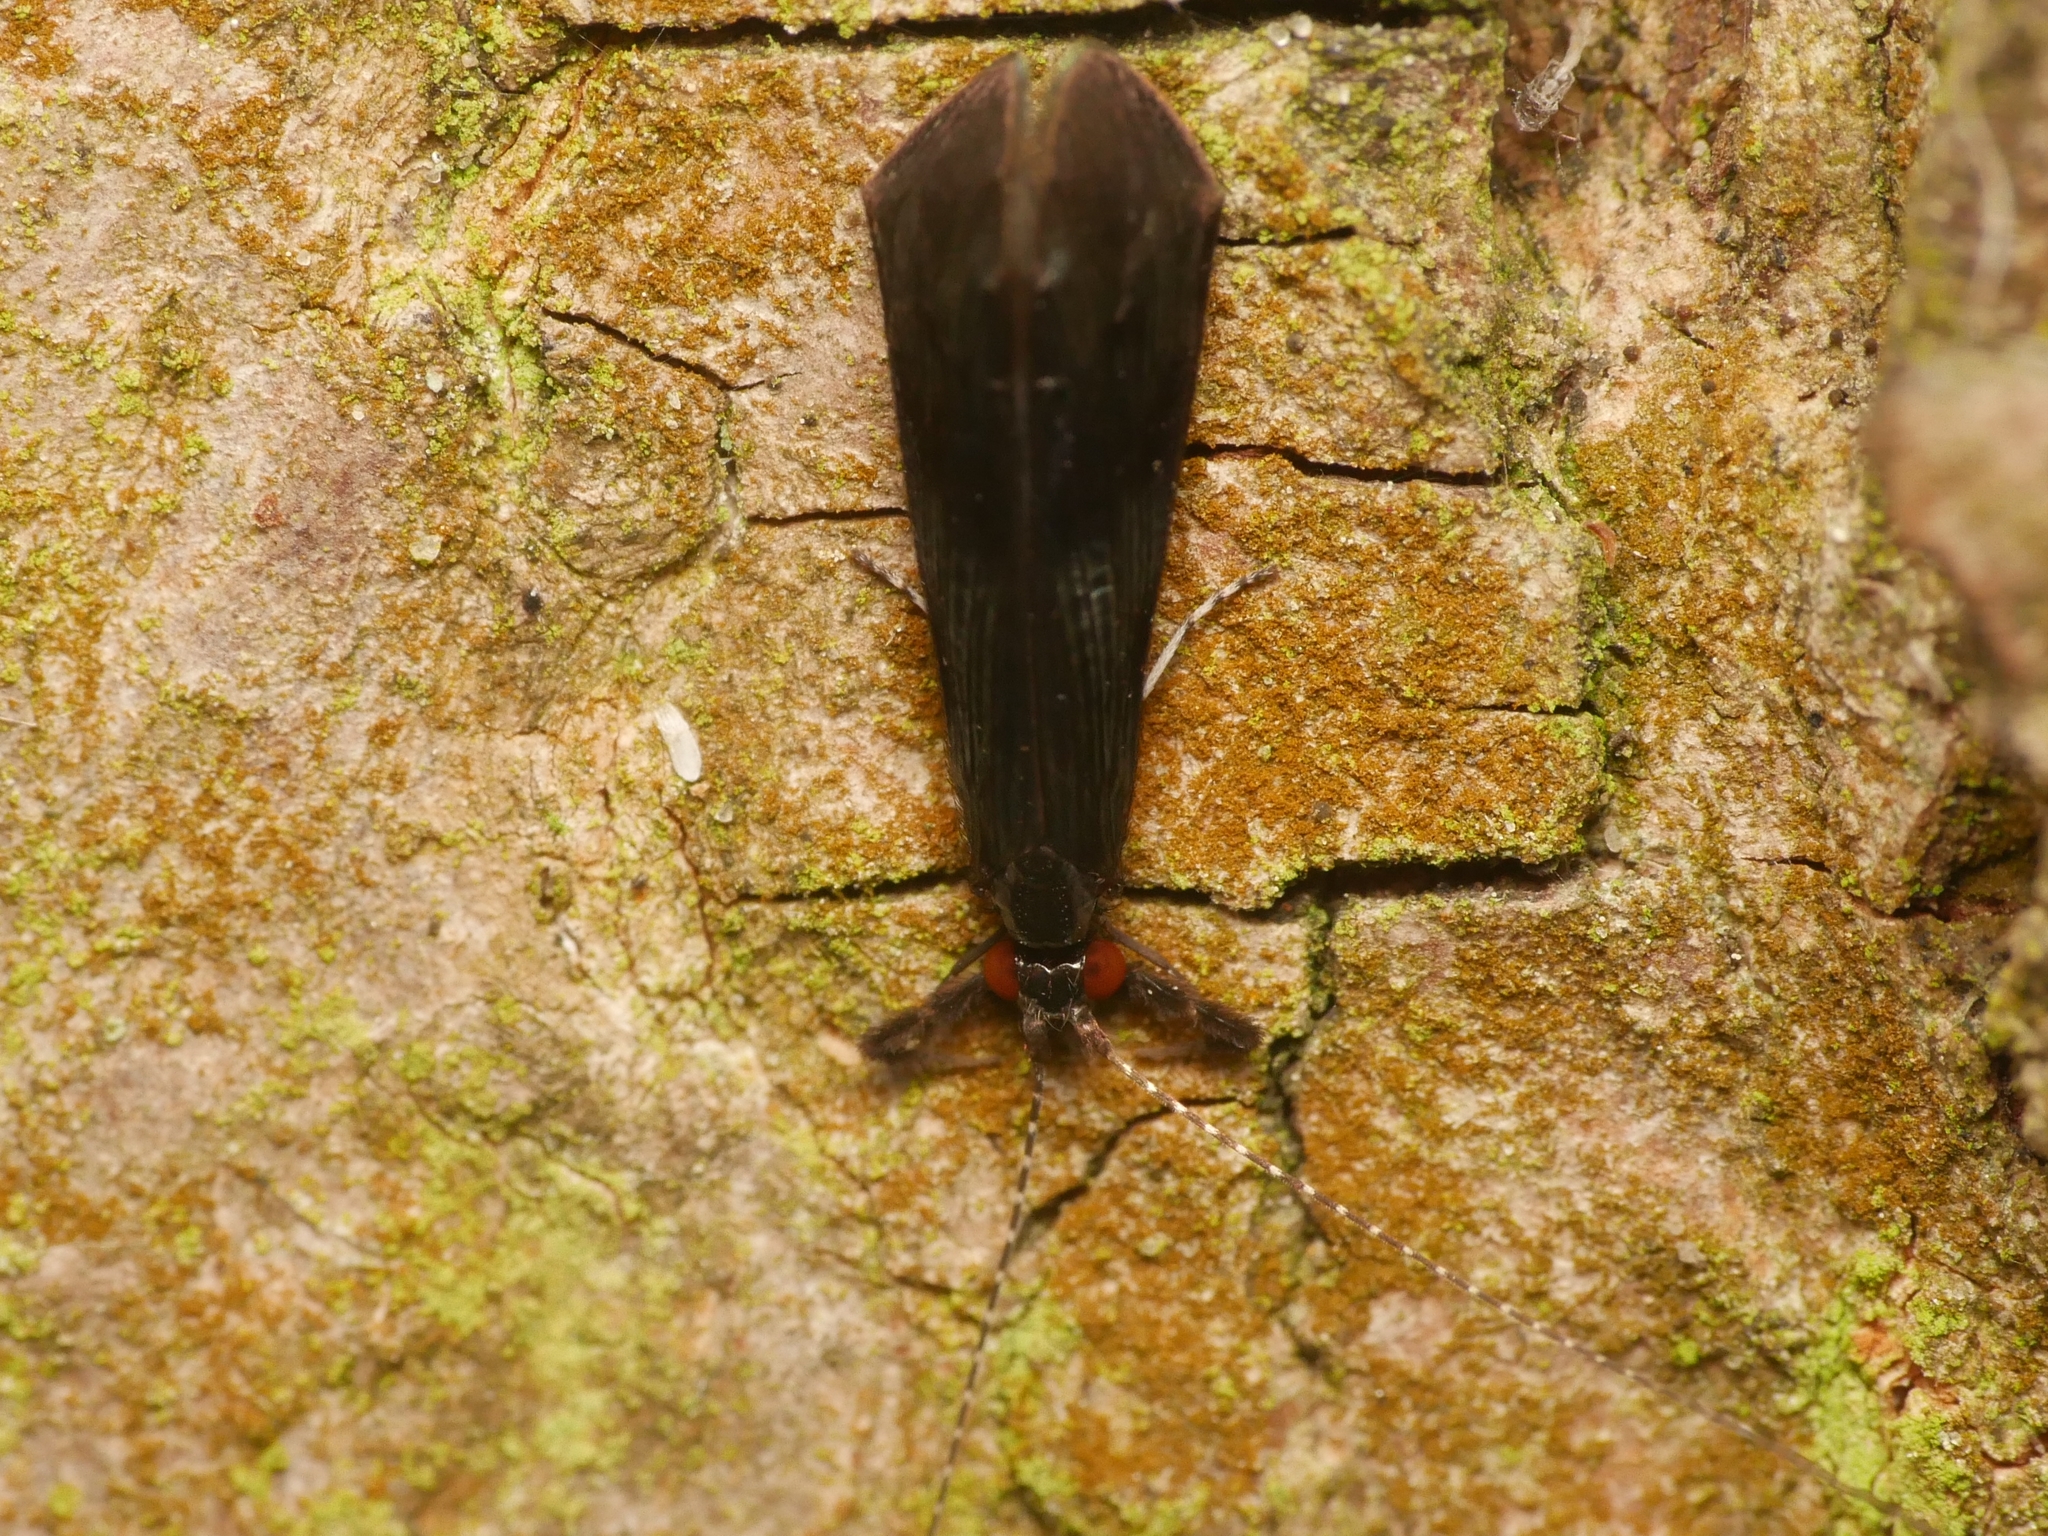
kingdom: Animalia
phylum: Arthropoda
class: Insecta
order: Trichoptera
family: Leptoceridae
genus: Mystacides
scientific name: Mystacides niger
